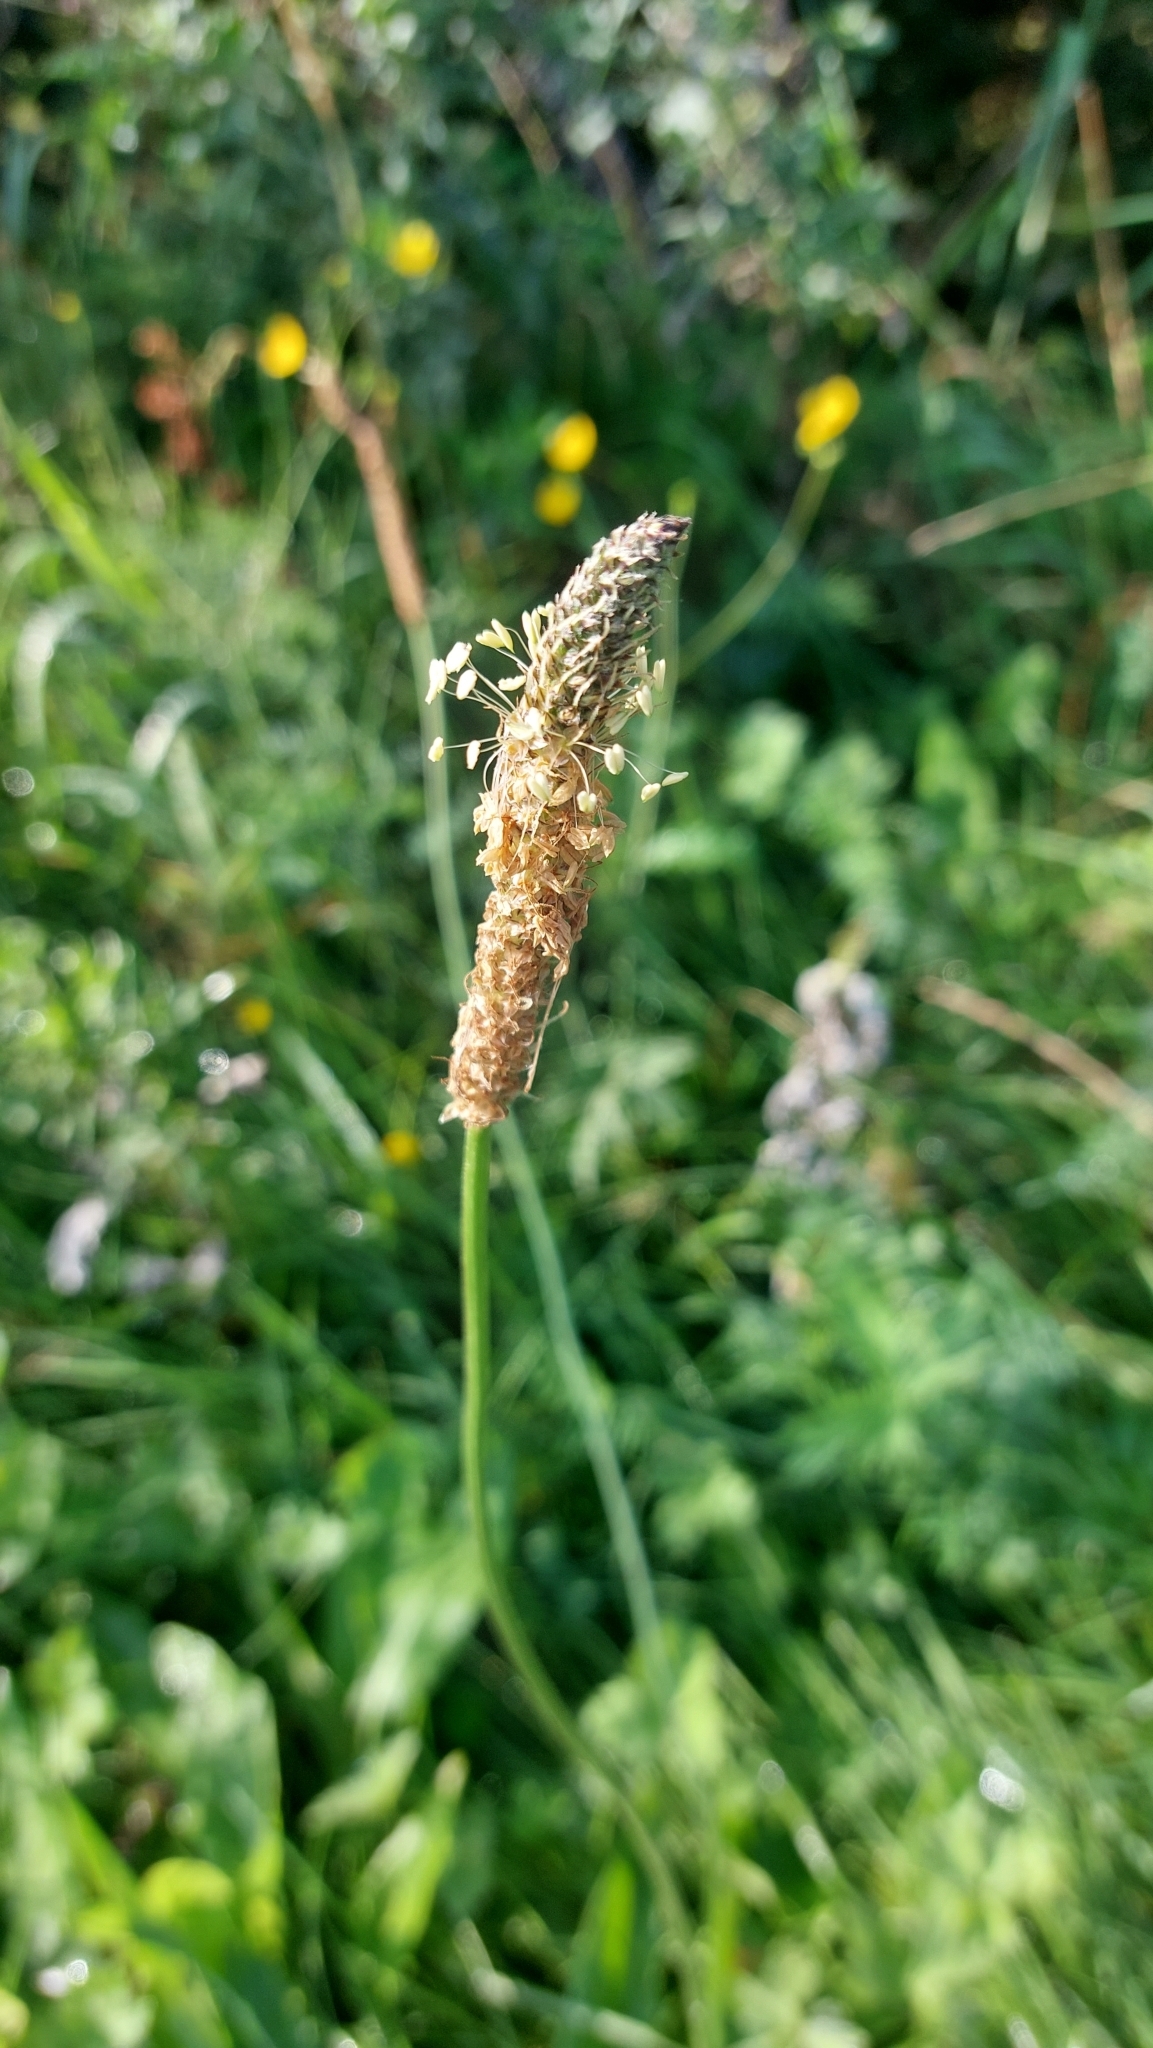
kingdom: Plantae
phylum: Tracheophyta
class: Magnoliopsida
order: Lamiales
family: Plantaginaceae
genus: Plantago
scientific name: Plantago lanceolata
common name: Ribwort plantain
